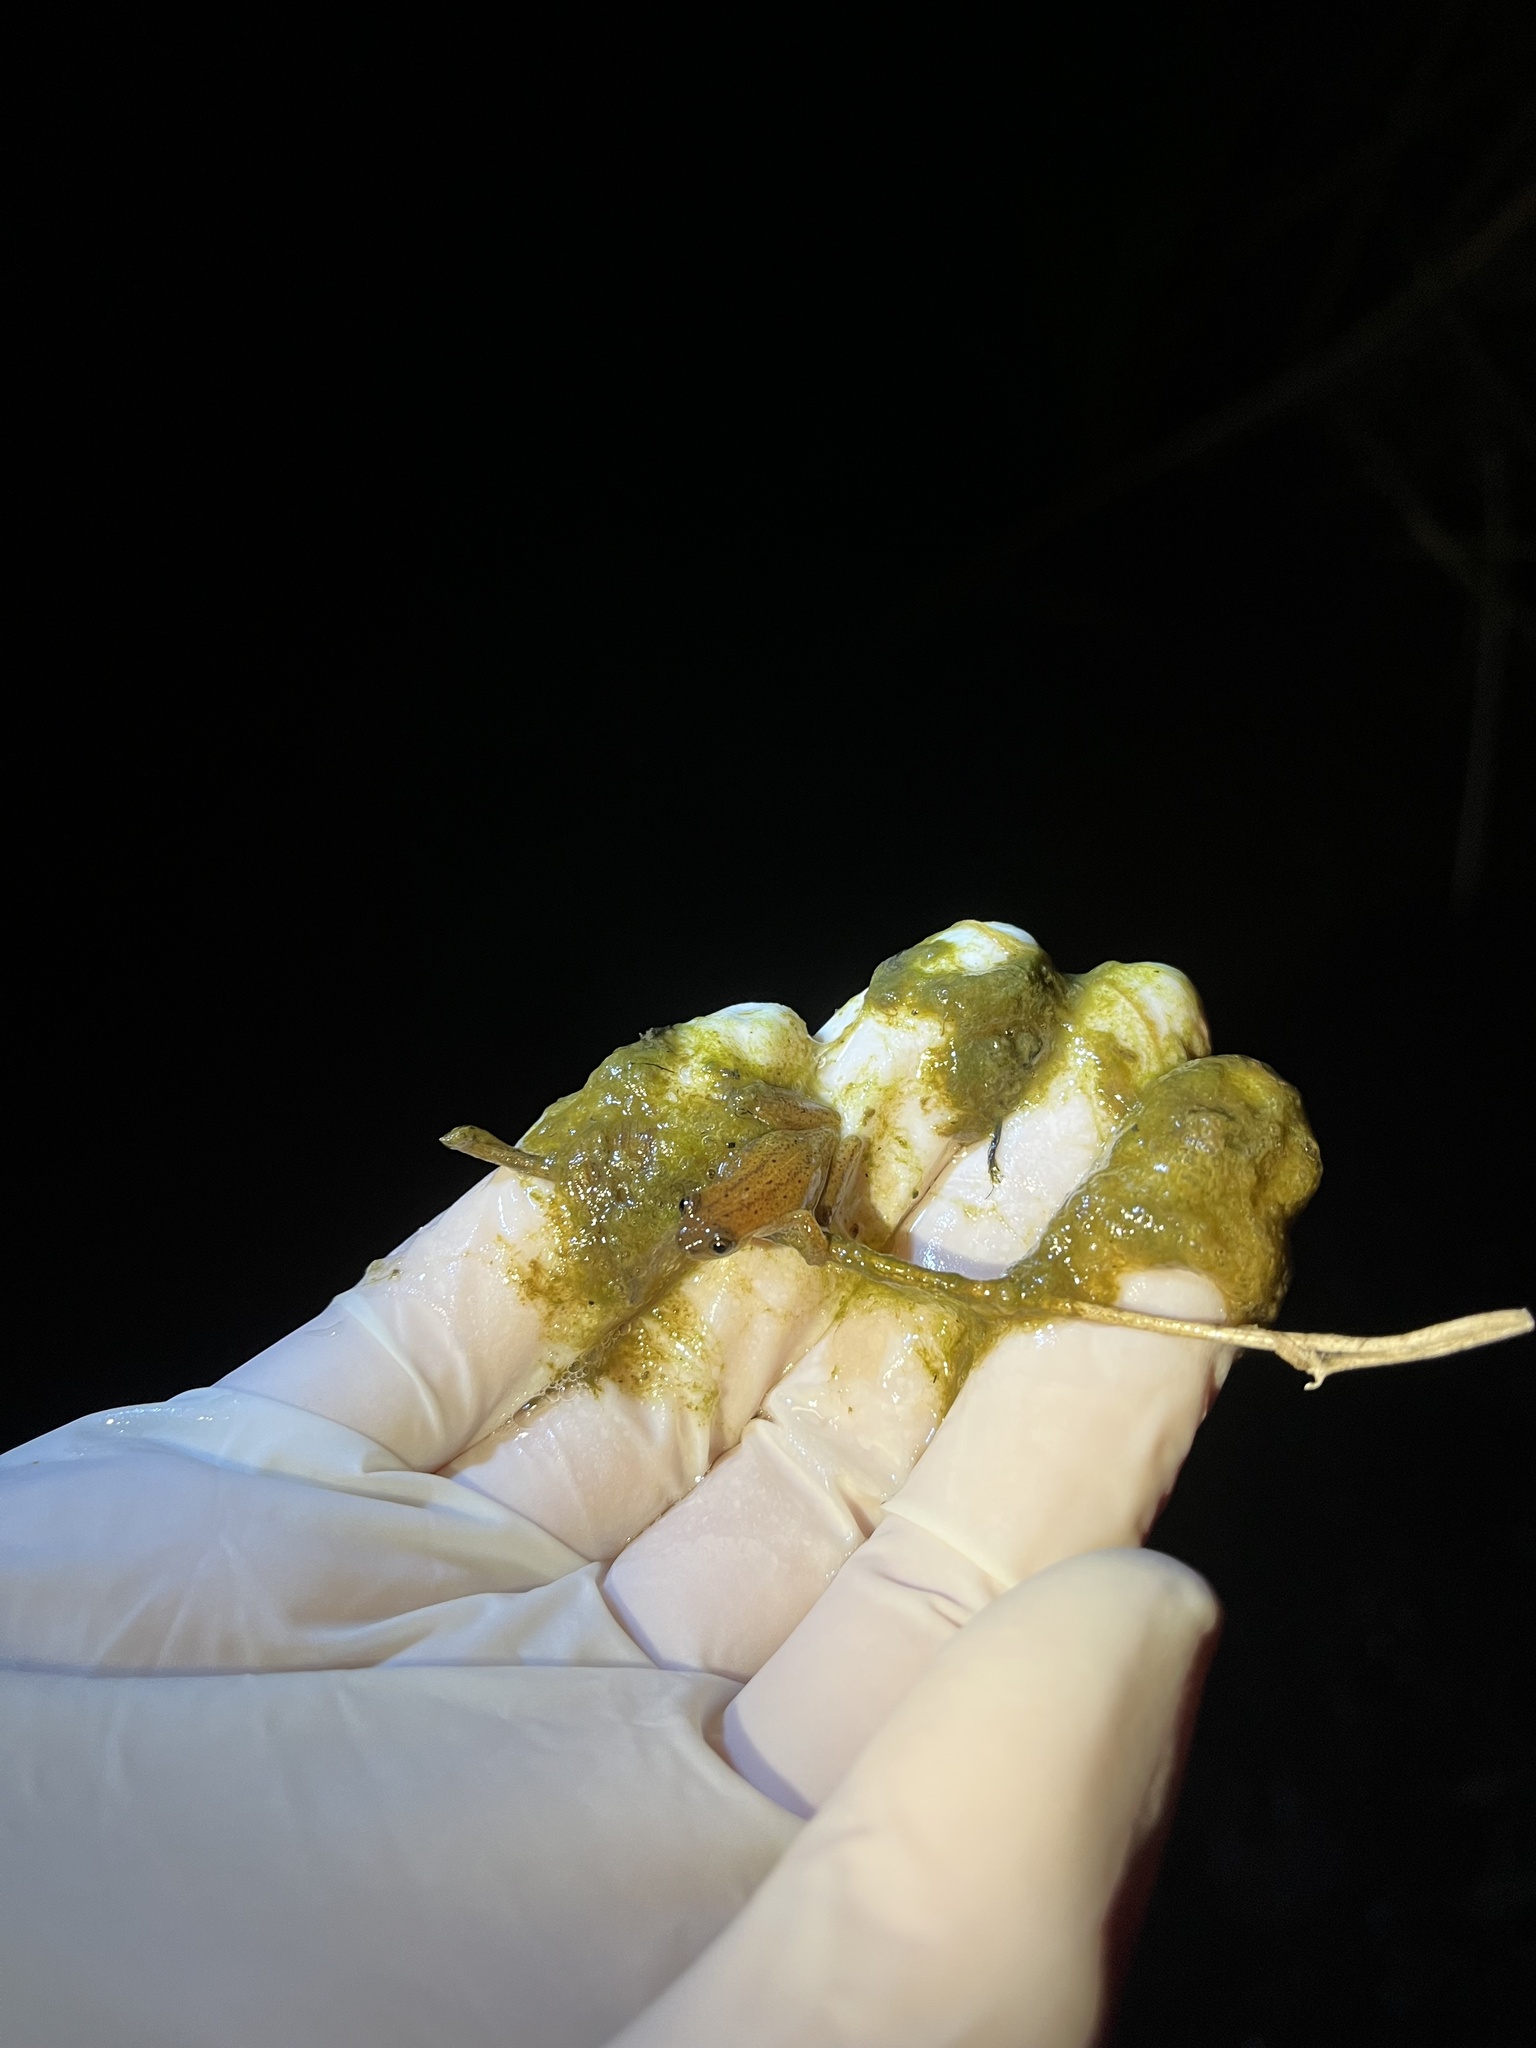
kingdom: Animalia
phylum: Chordata
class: Amphibia
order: Anura
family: Hylidae
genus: Dendropsophus
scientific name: Dendropsophus sanborni
